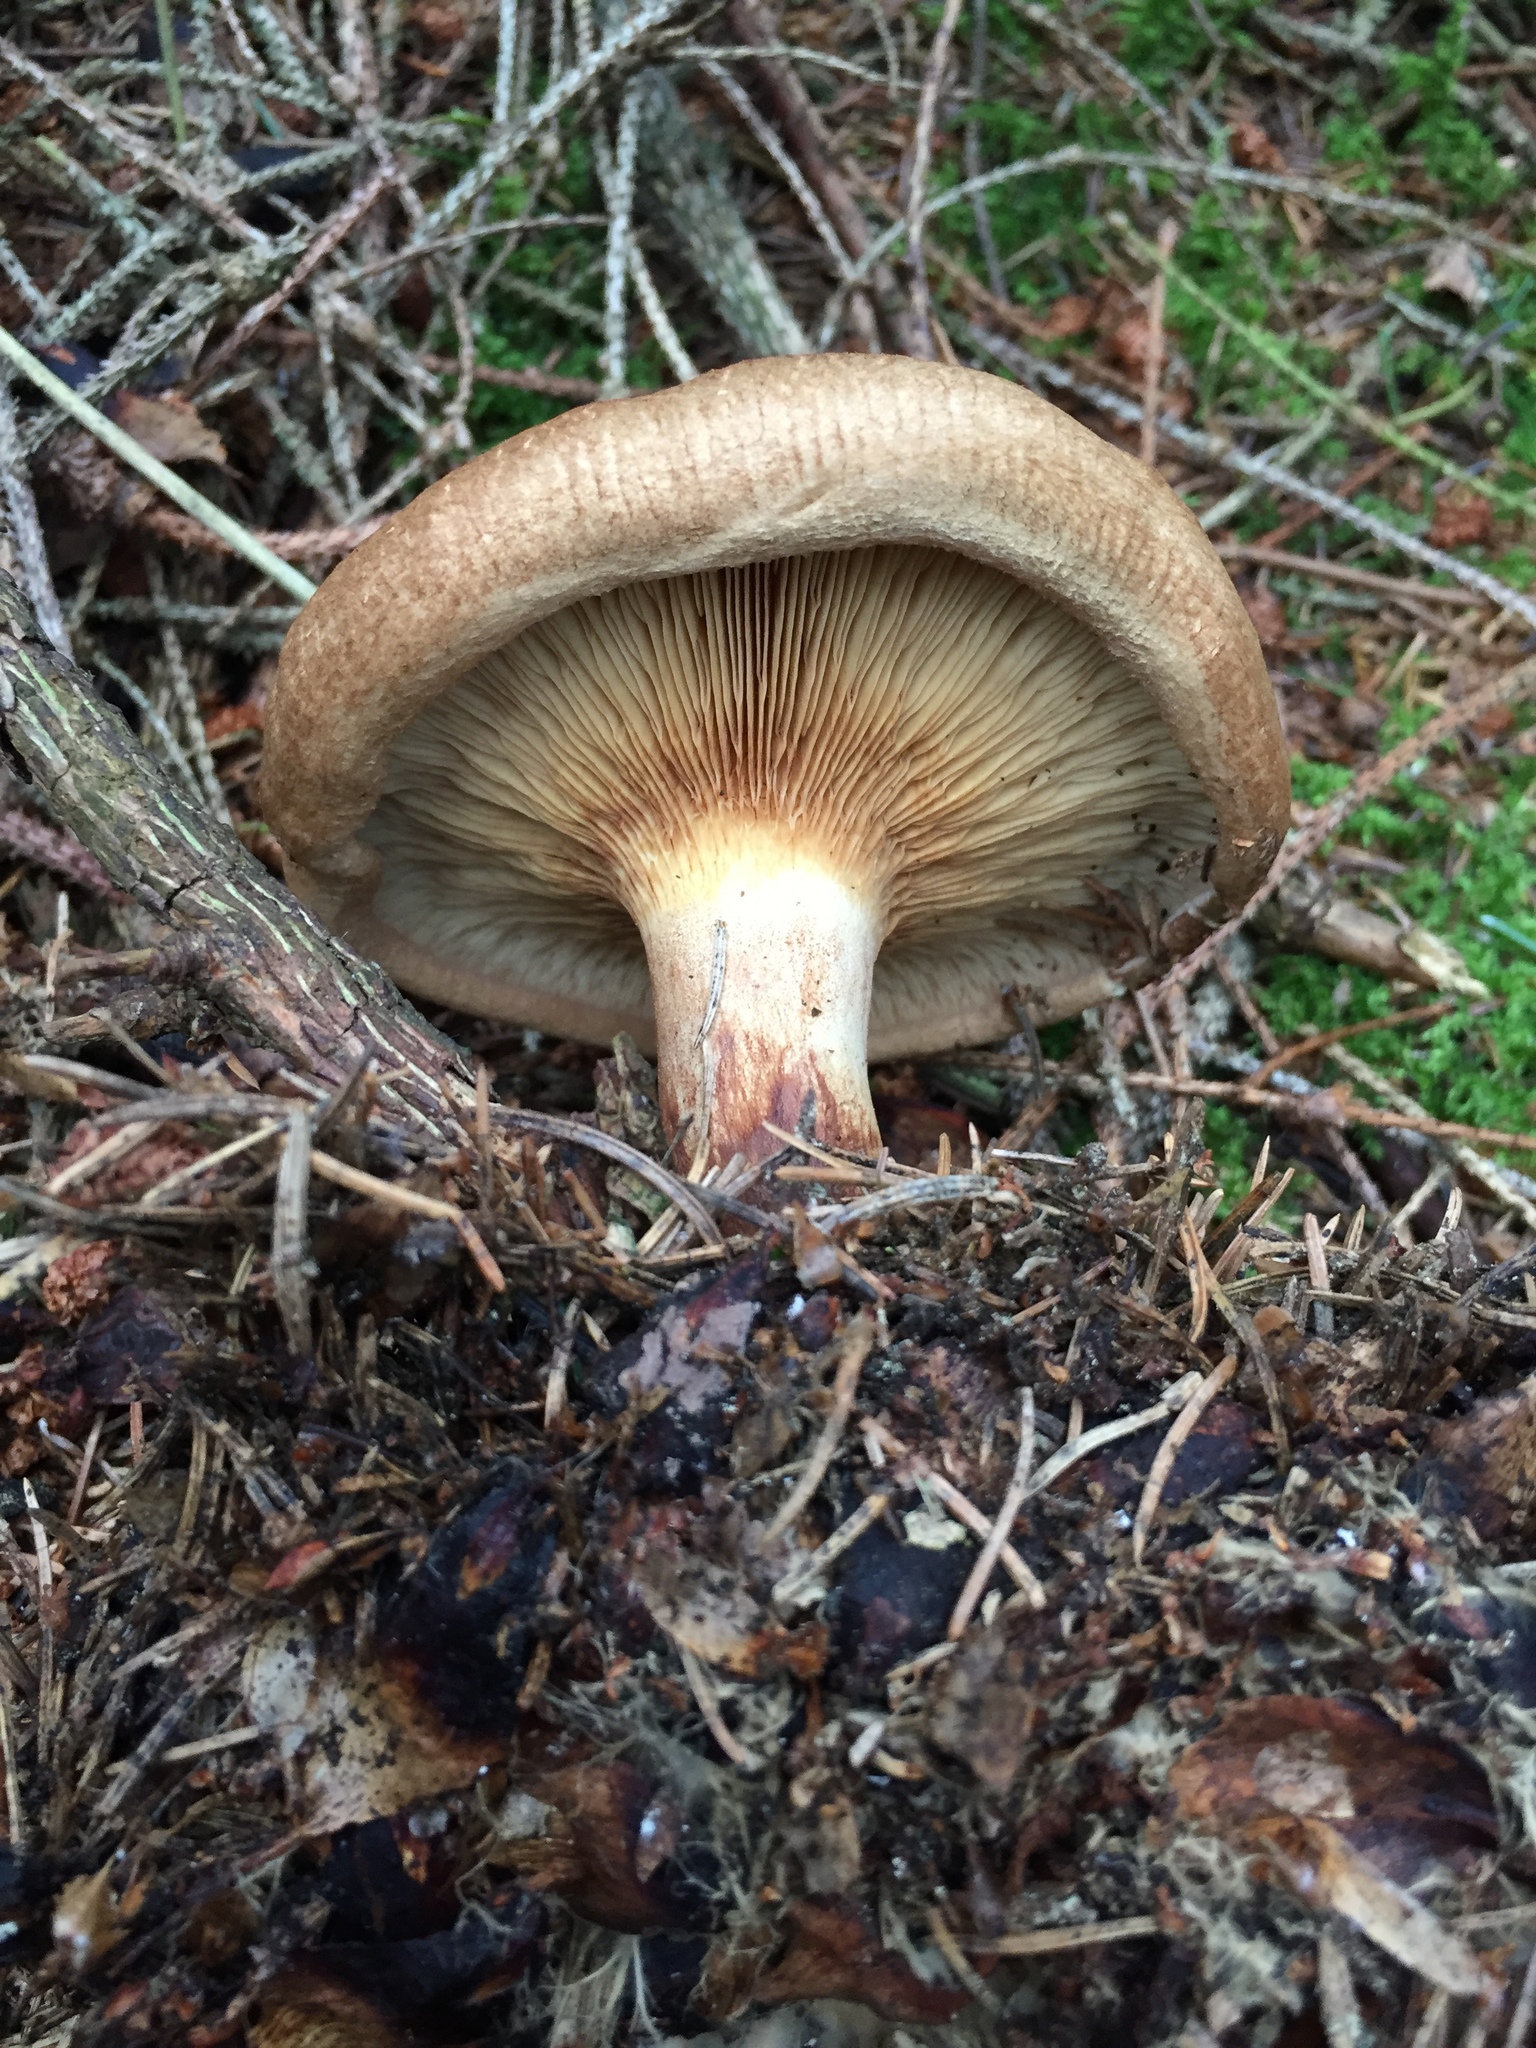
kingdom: Fungi
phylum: Basidiomycota
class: Agaricomycetes
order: Boletales
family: Paxillaceae
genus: Paxillus
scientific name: Paxillus involutus
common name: Brown roll rim
